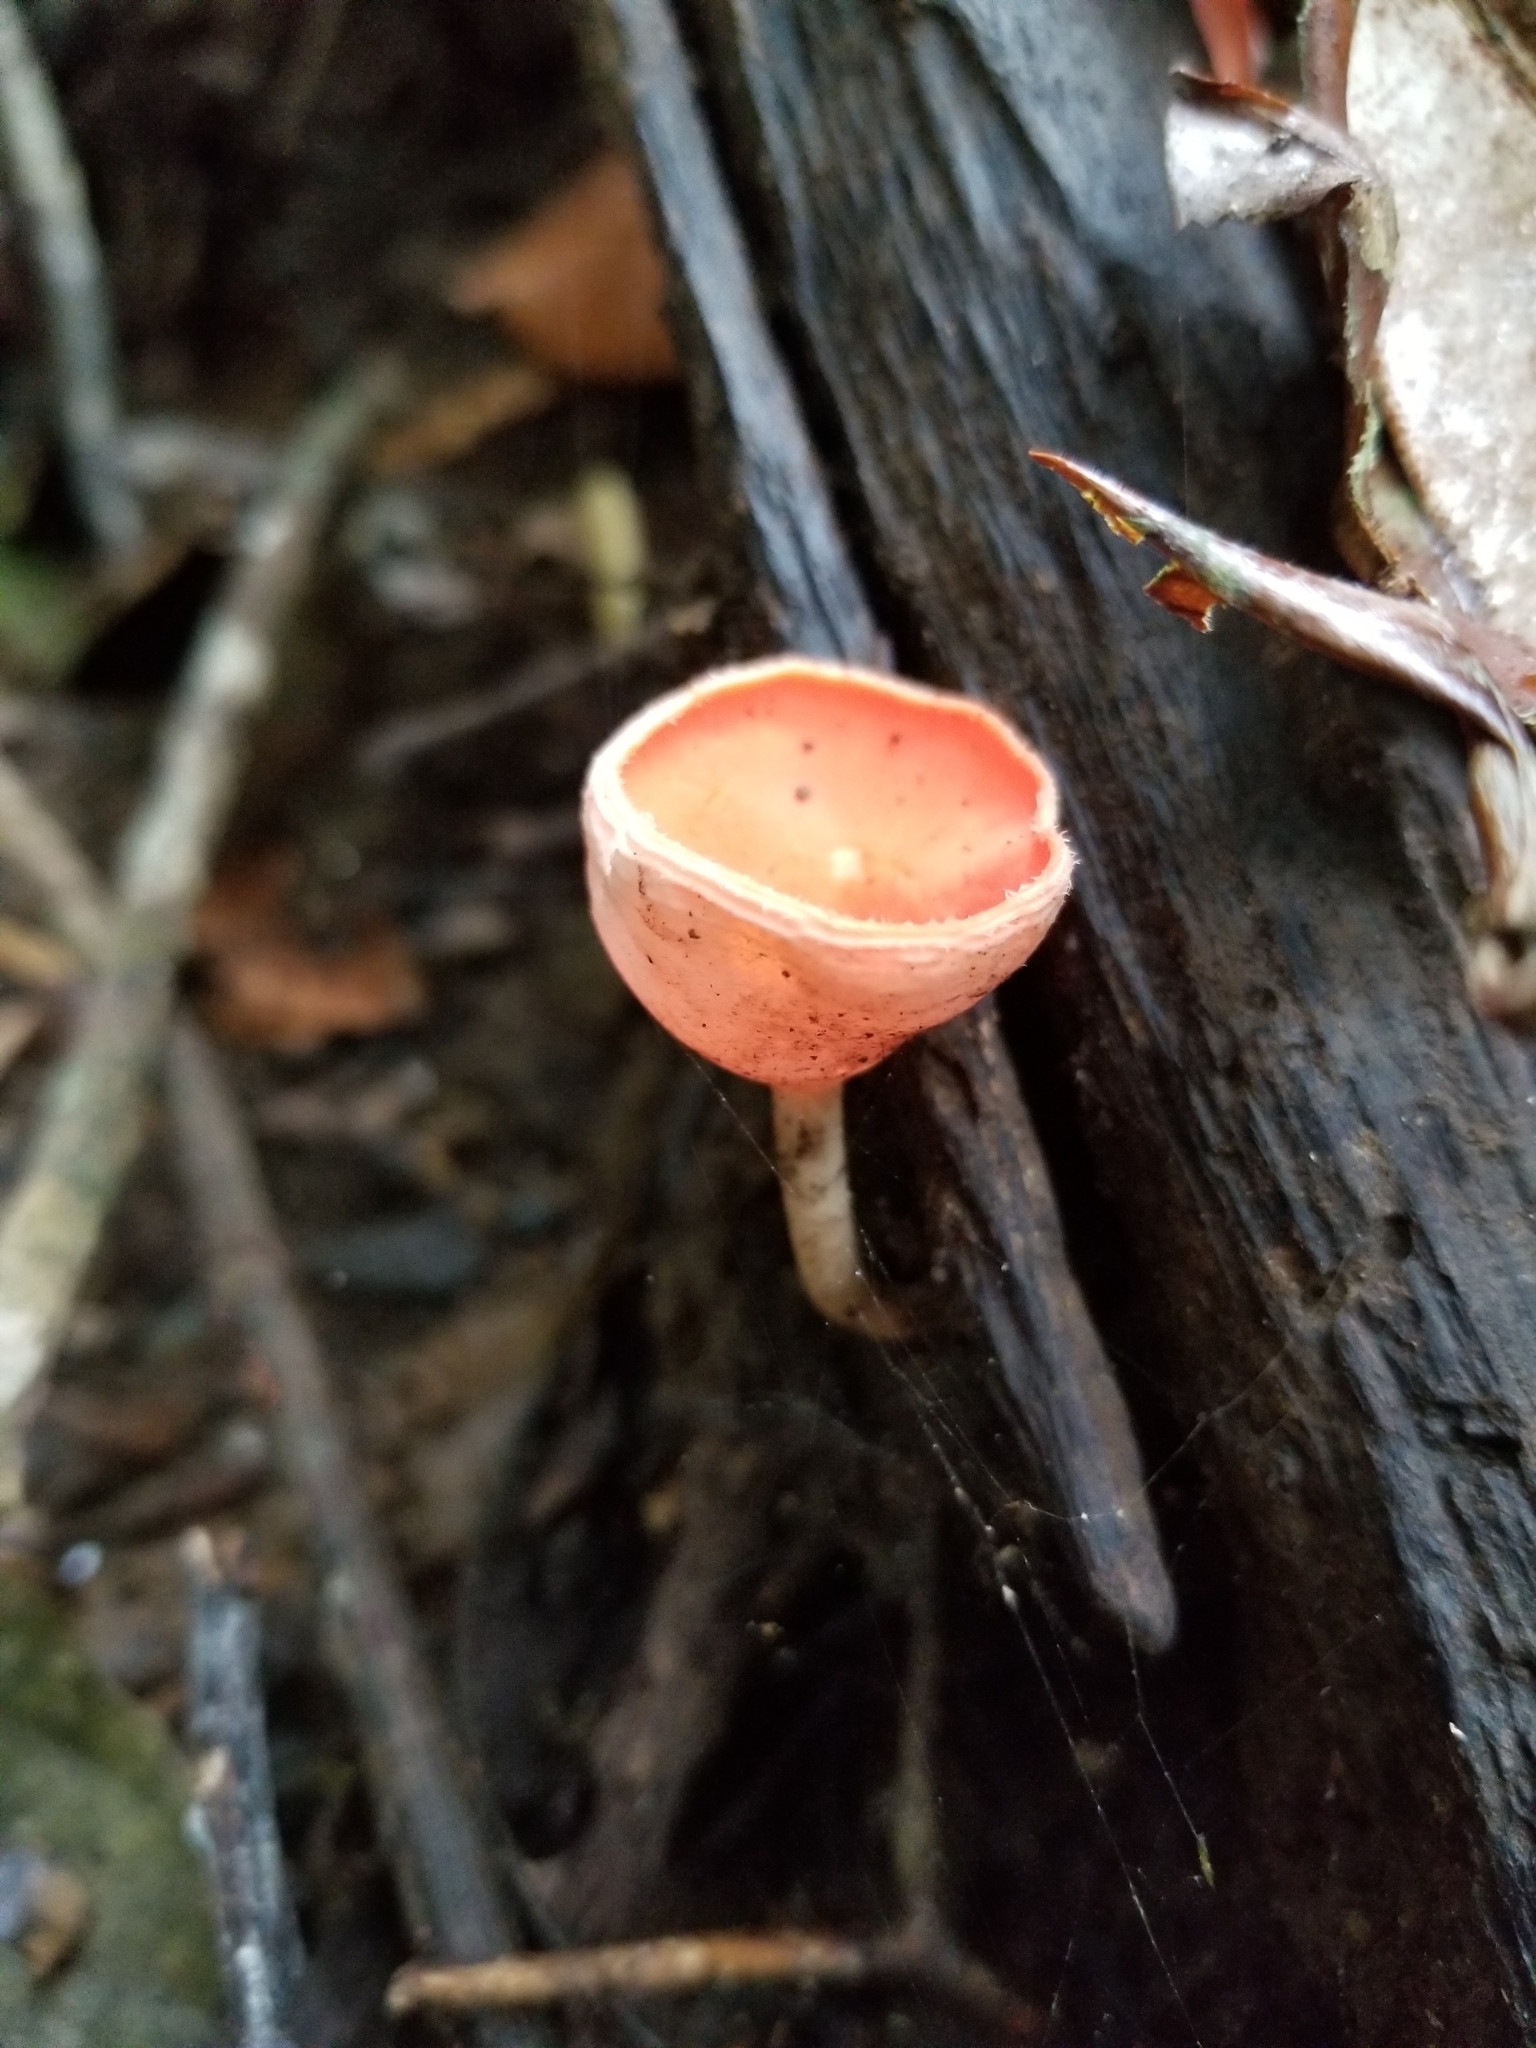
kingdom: Fungi
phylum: Ascomycota
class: Pezizomycetes
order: Pezizales
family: Sarcoscyphaceae
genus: Cookeina
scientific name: Cookeina speciosa
